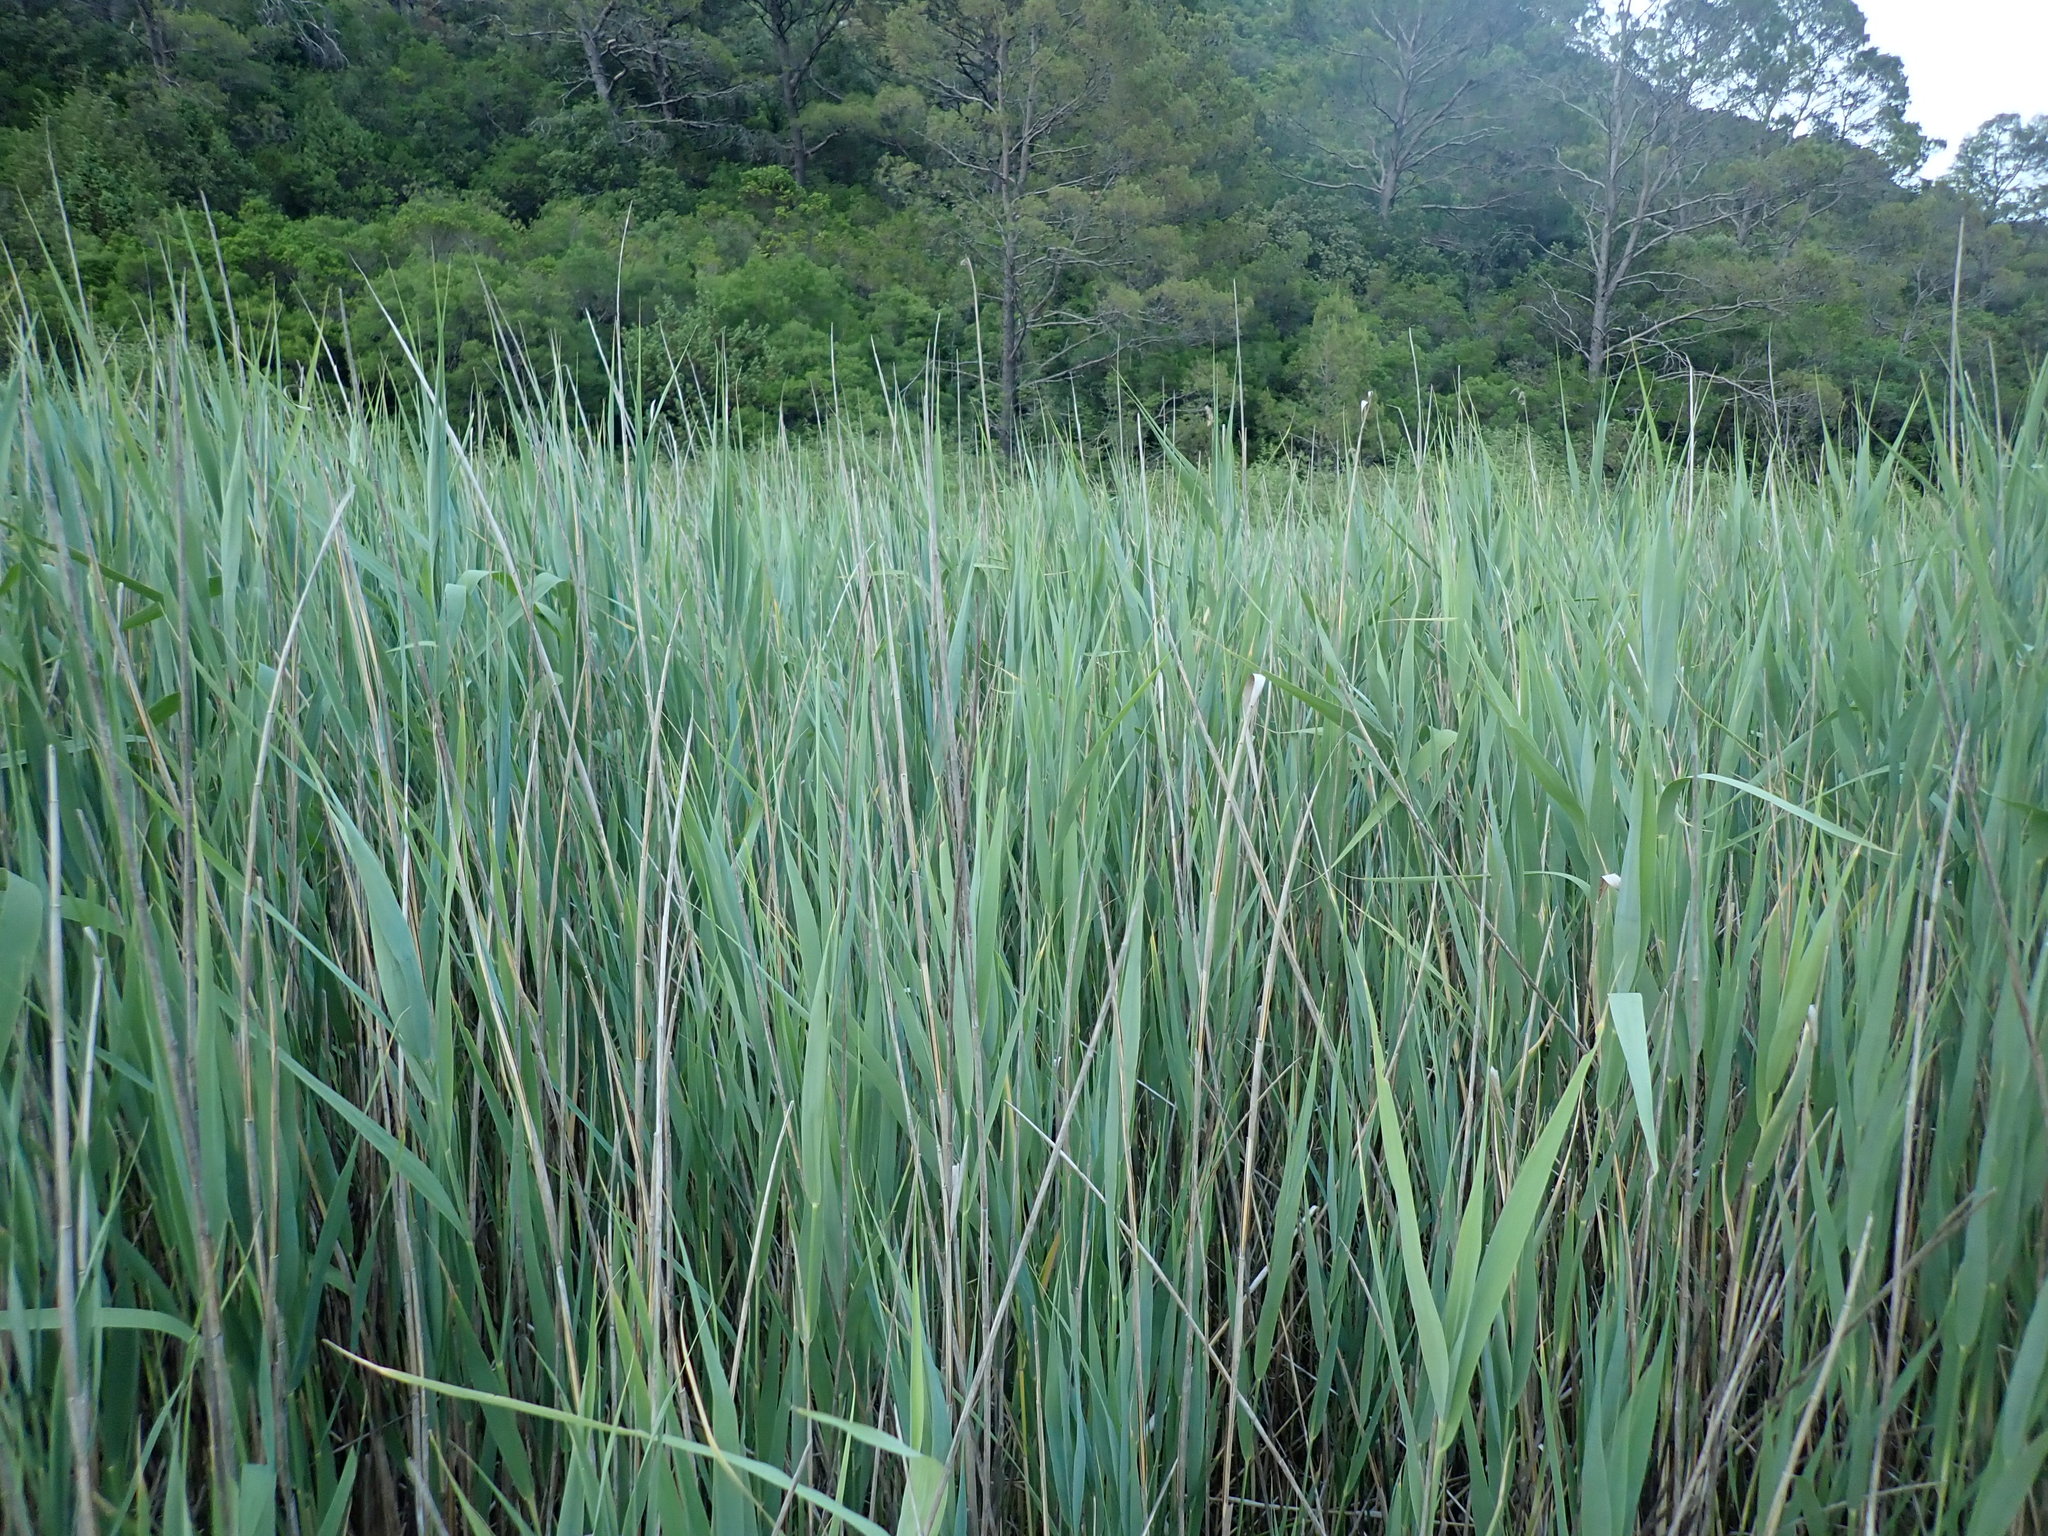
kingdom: Plantae
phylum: Tracheophyta
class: Liliopsida
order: Poales
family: Poaceae
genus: Phragmites
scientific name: Phragmites australis
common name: Common reed
